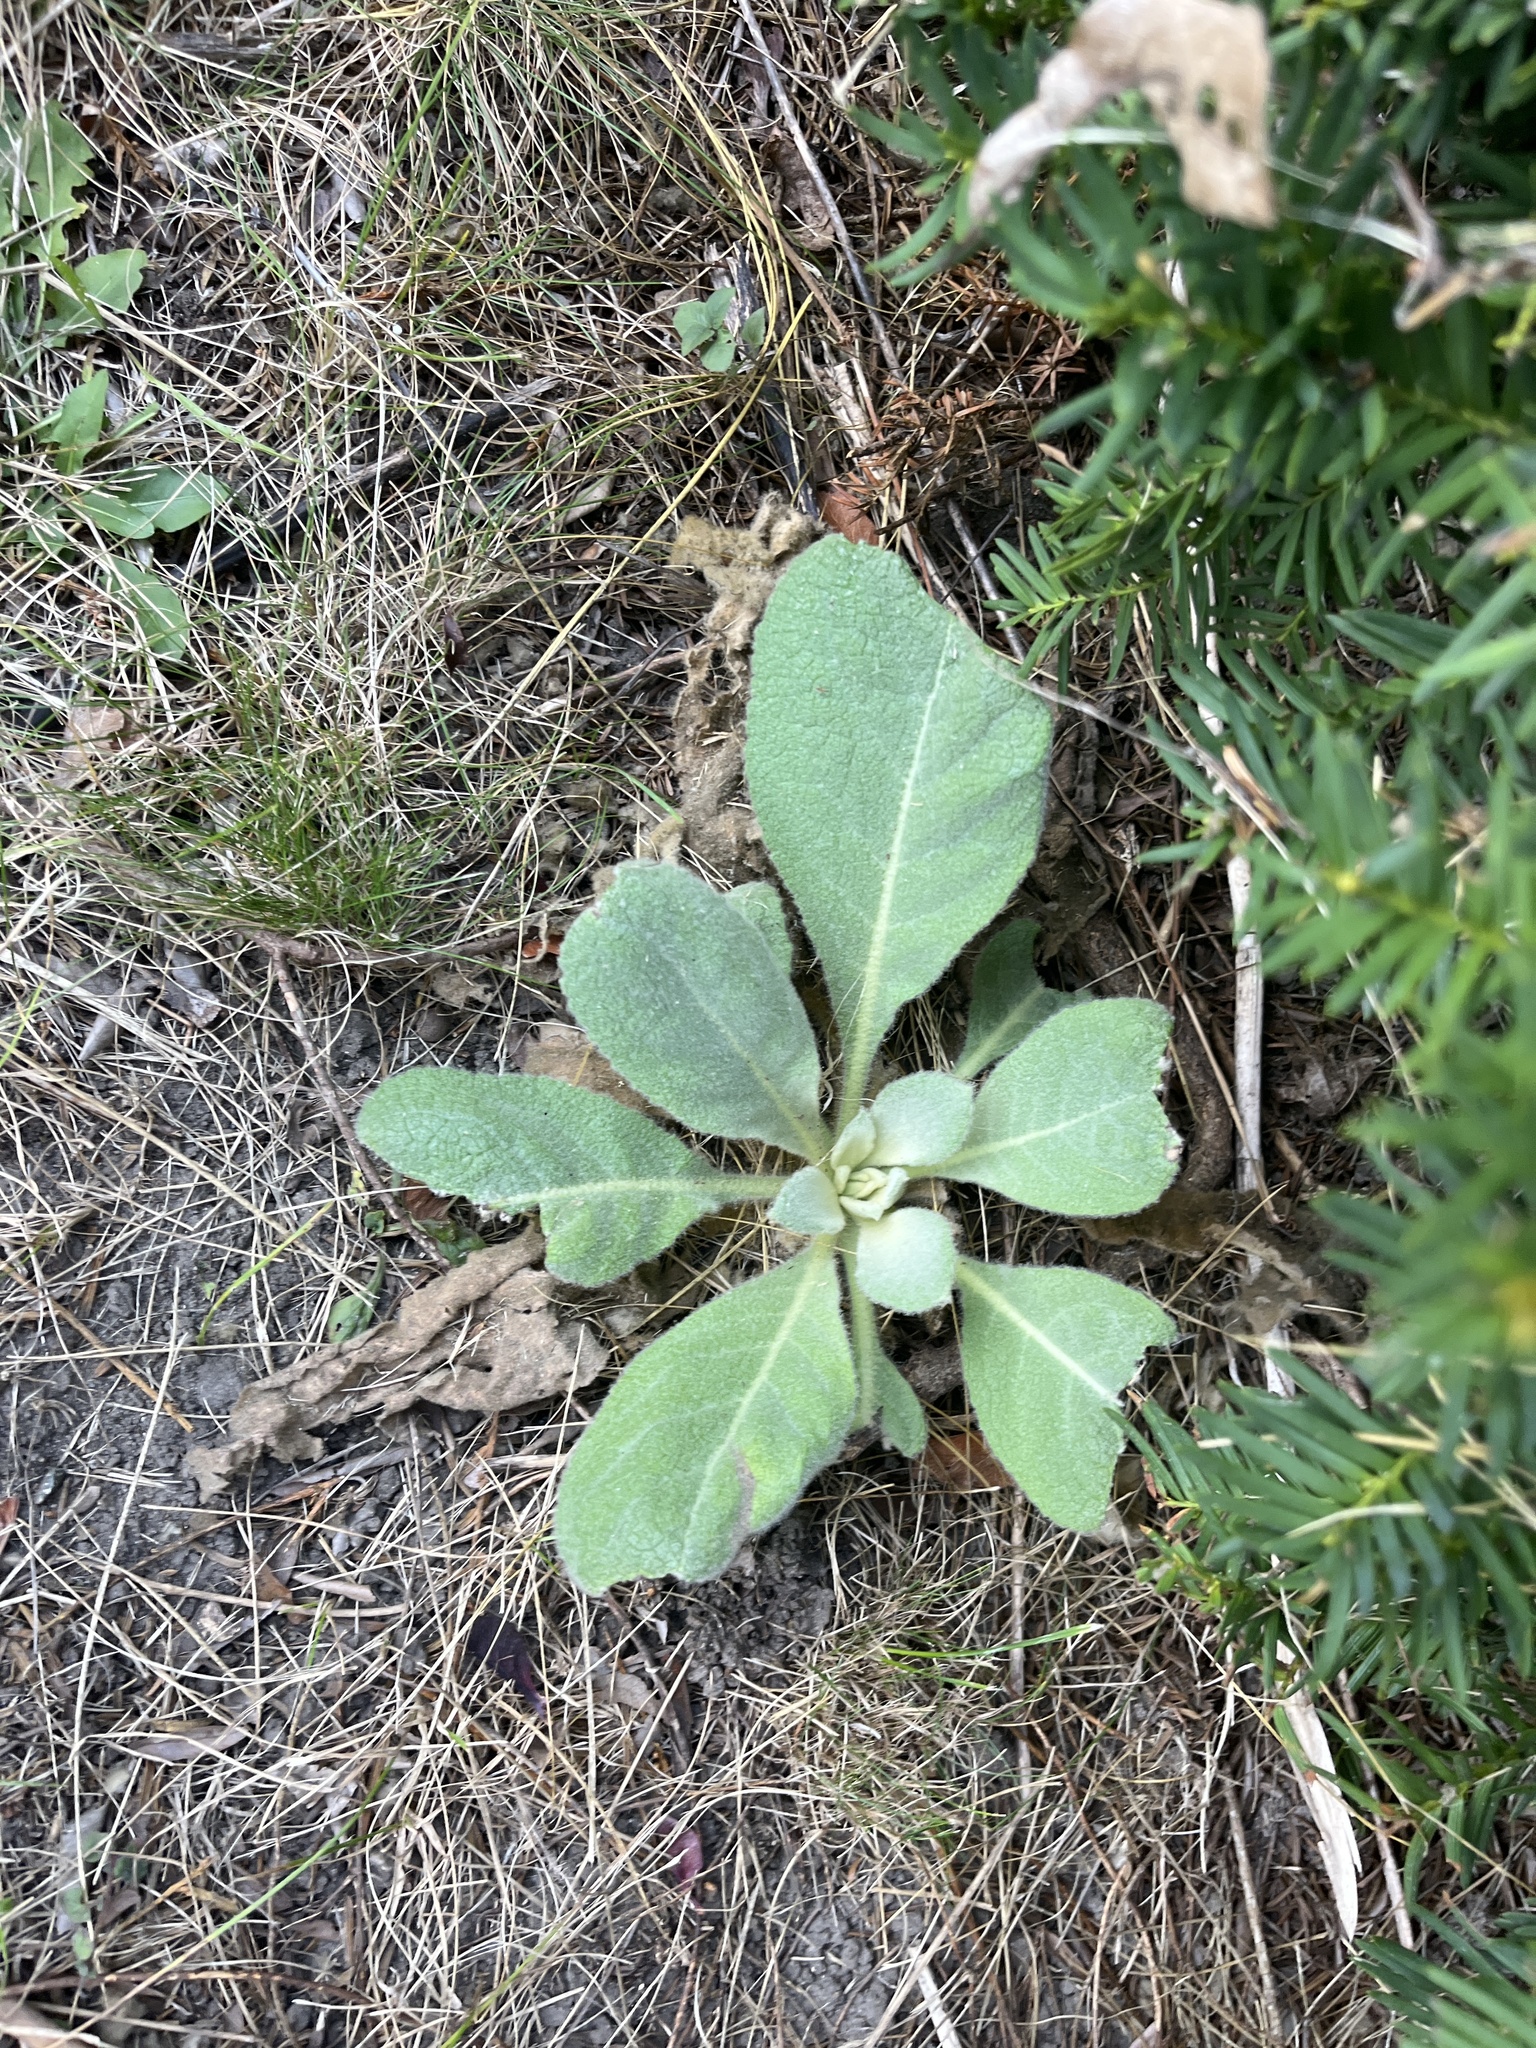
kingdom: Plantae
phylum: Tracheophyta
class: Magnoliopsida
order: Lamiales
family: Scrophulariaceae
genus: Verbascum
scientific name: Verbascum thapsus
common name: Common mullein
